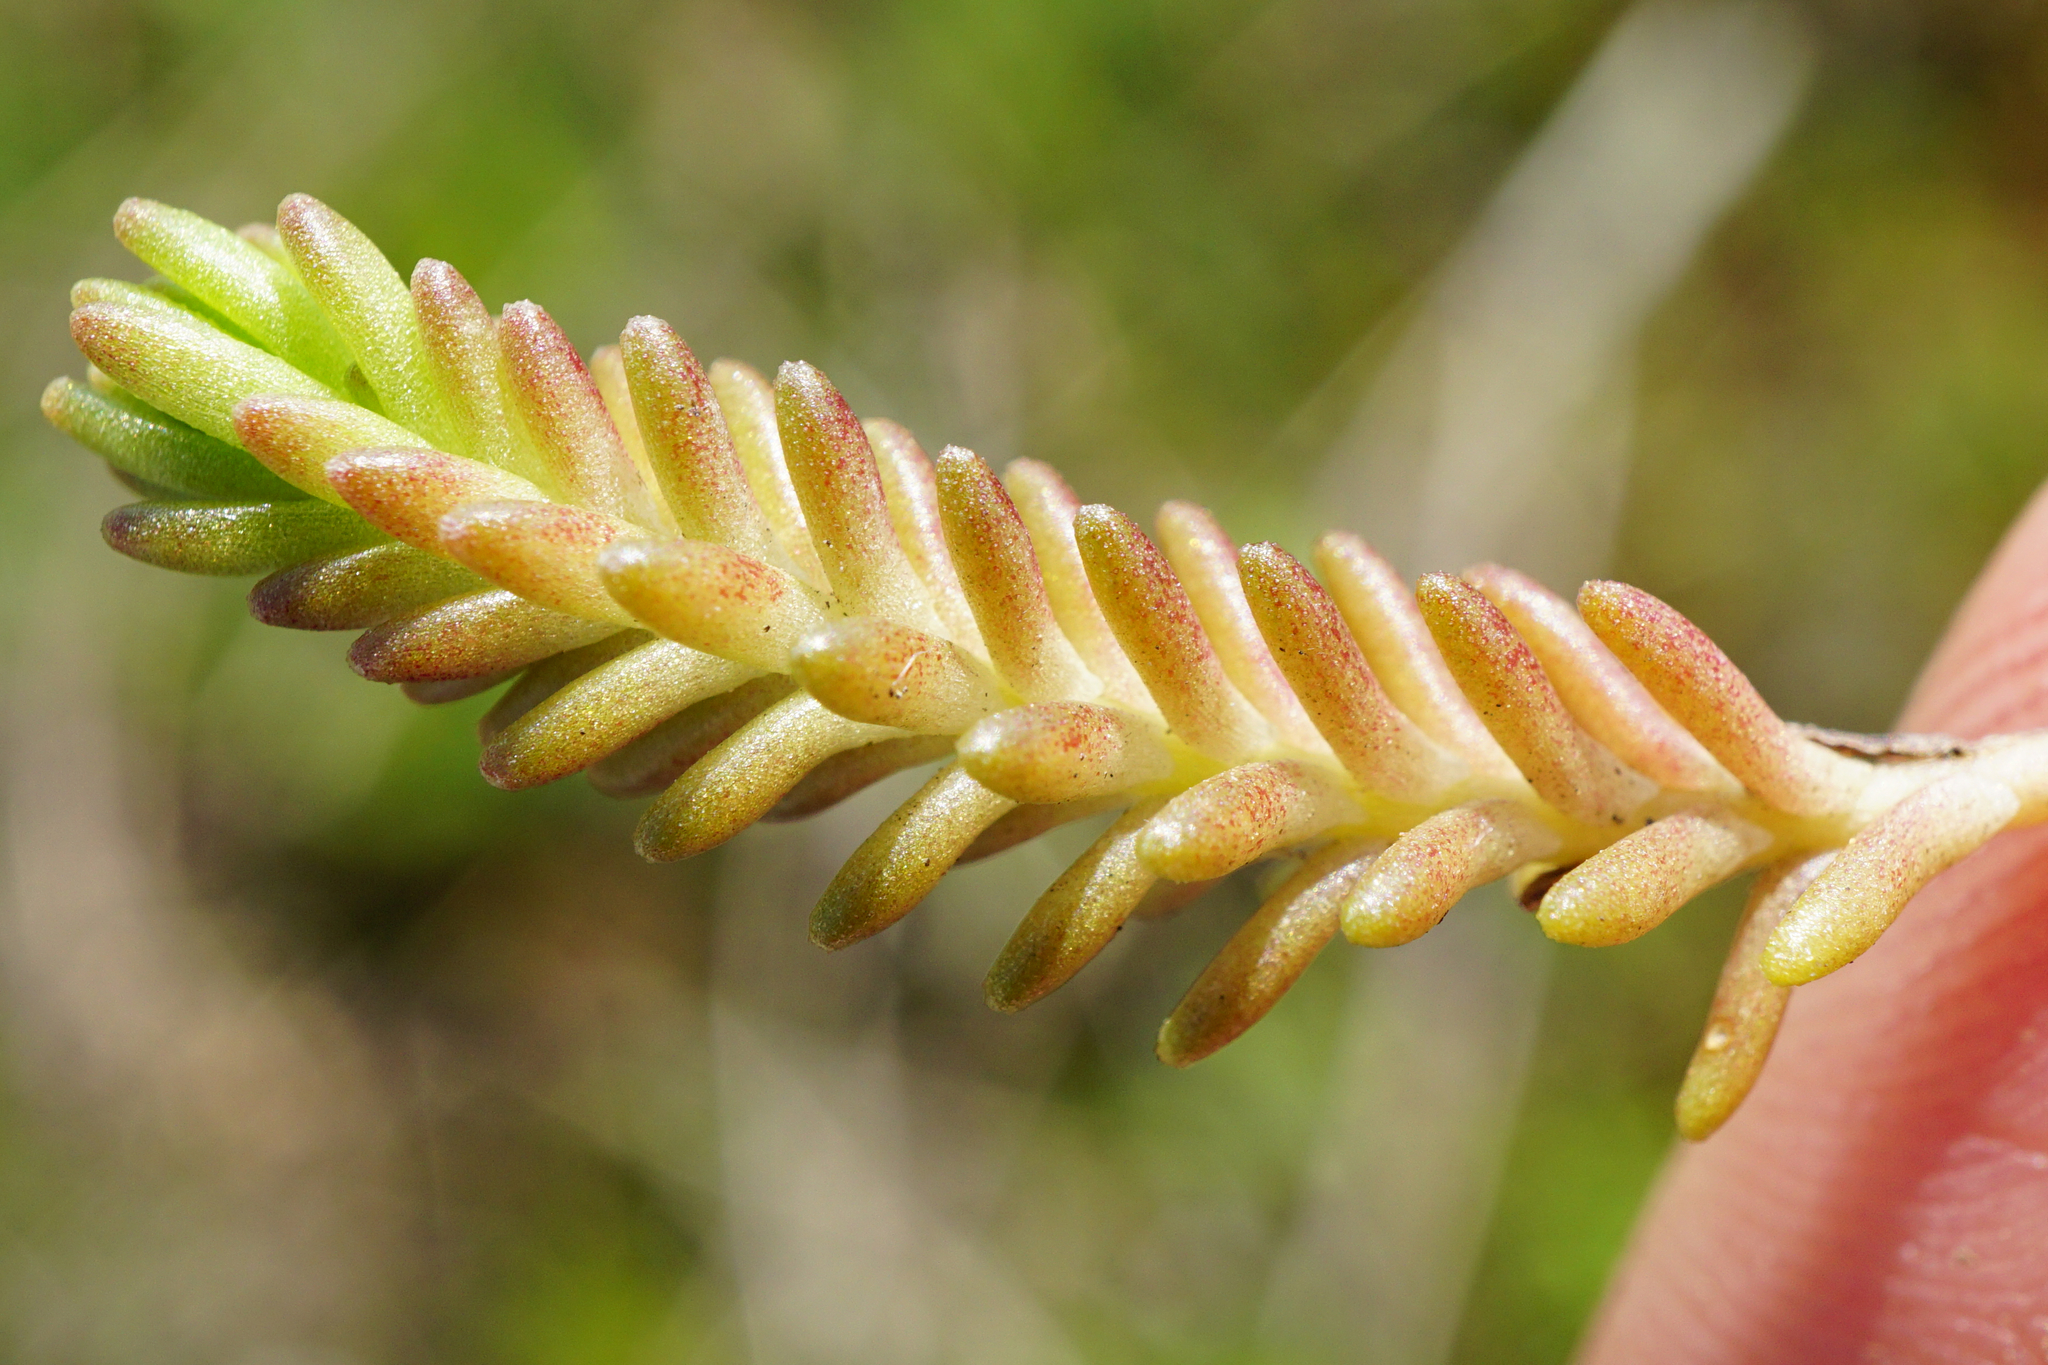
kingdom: Plantae
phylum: Tracheophyta
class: Magnoliopsida
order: Saxifragales
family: Crassulaceae
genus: Sedum
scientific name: Sedum sexangulare
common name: Tasteless stonecrop
